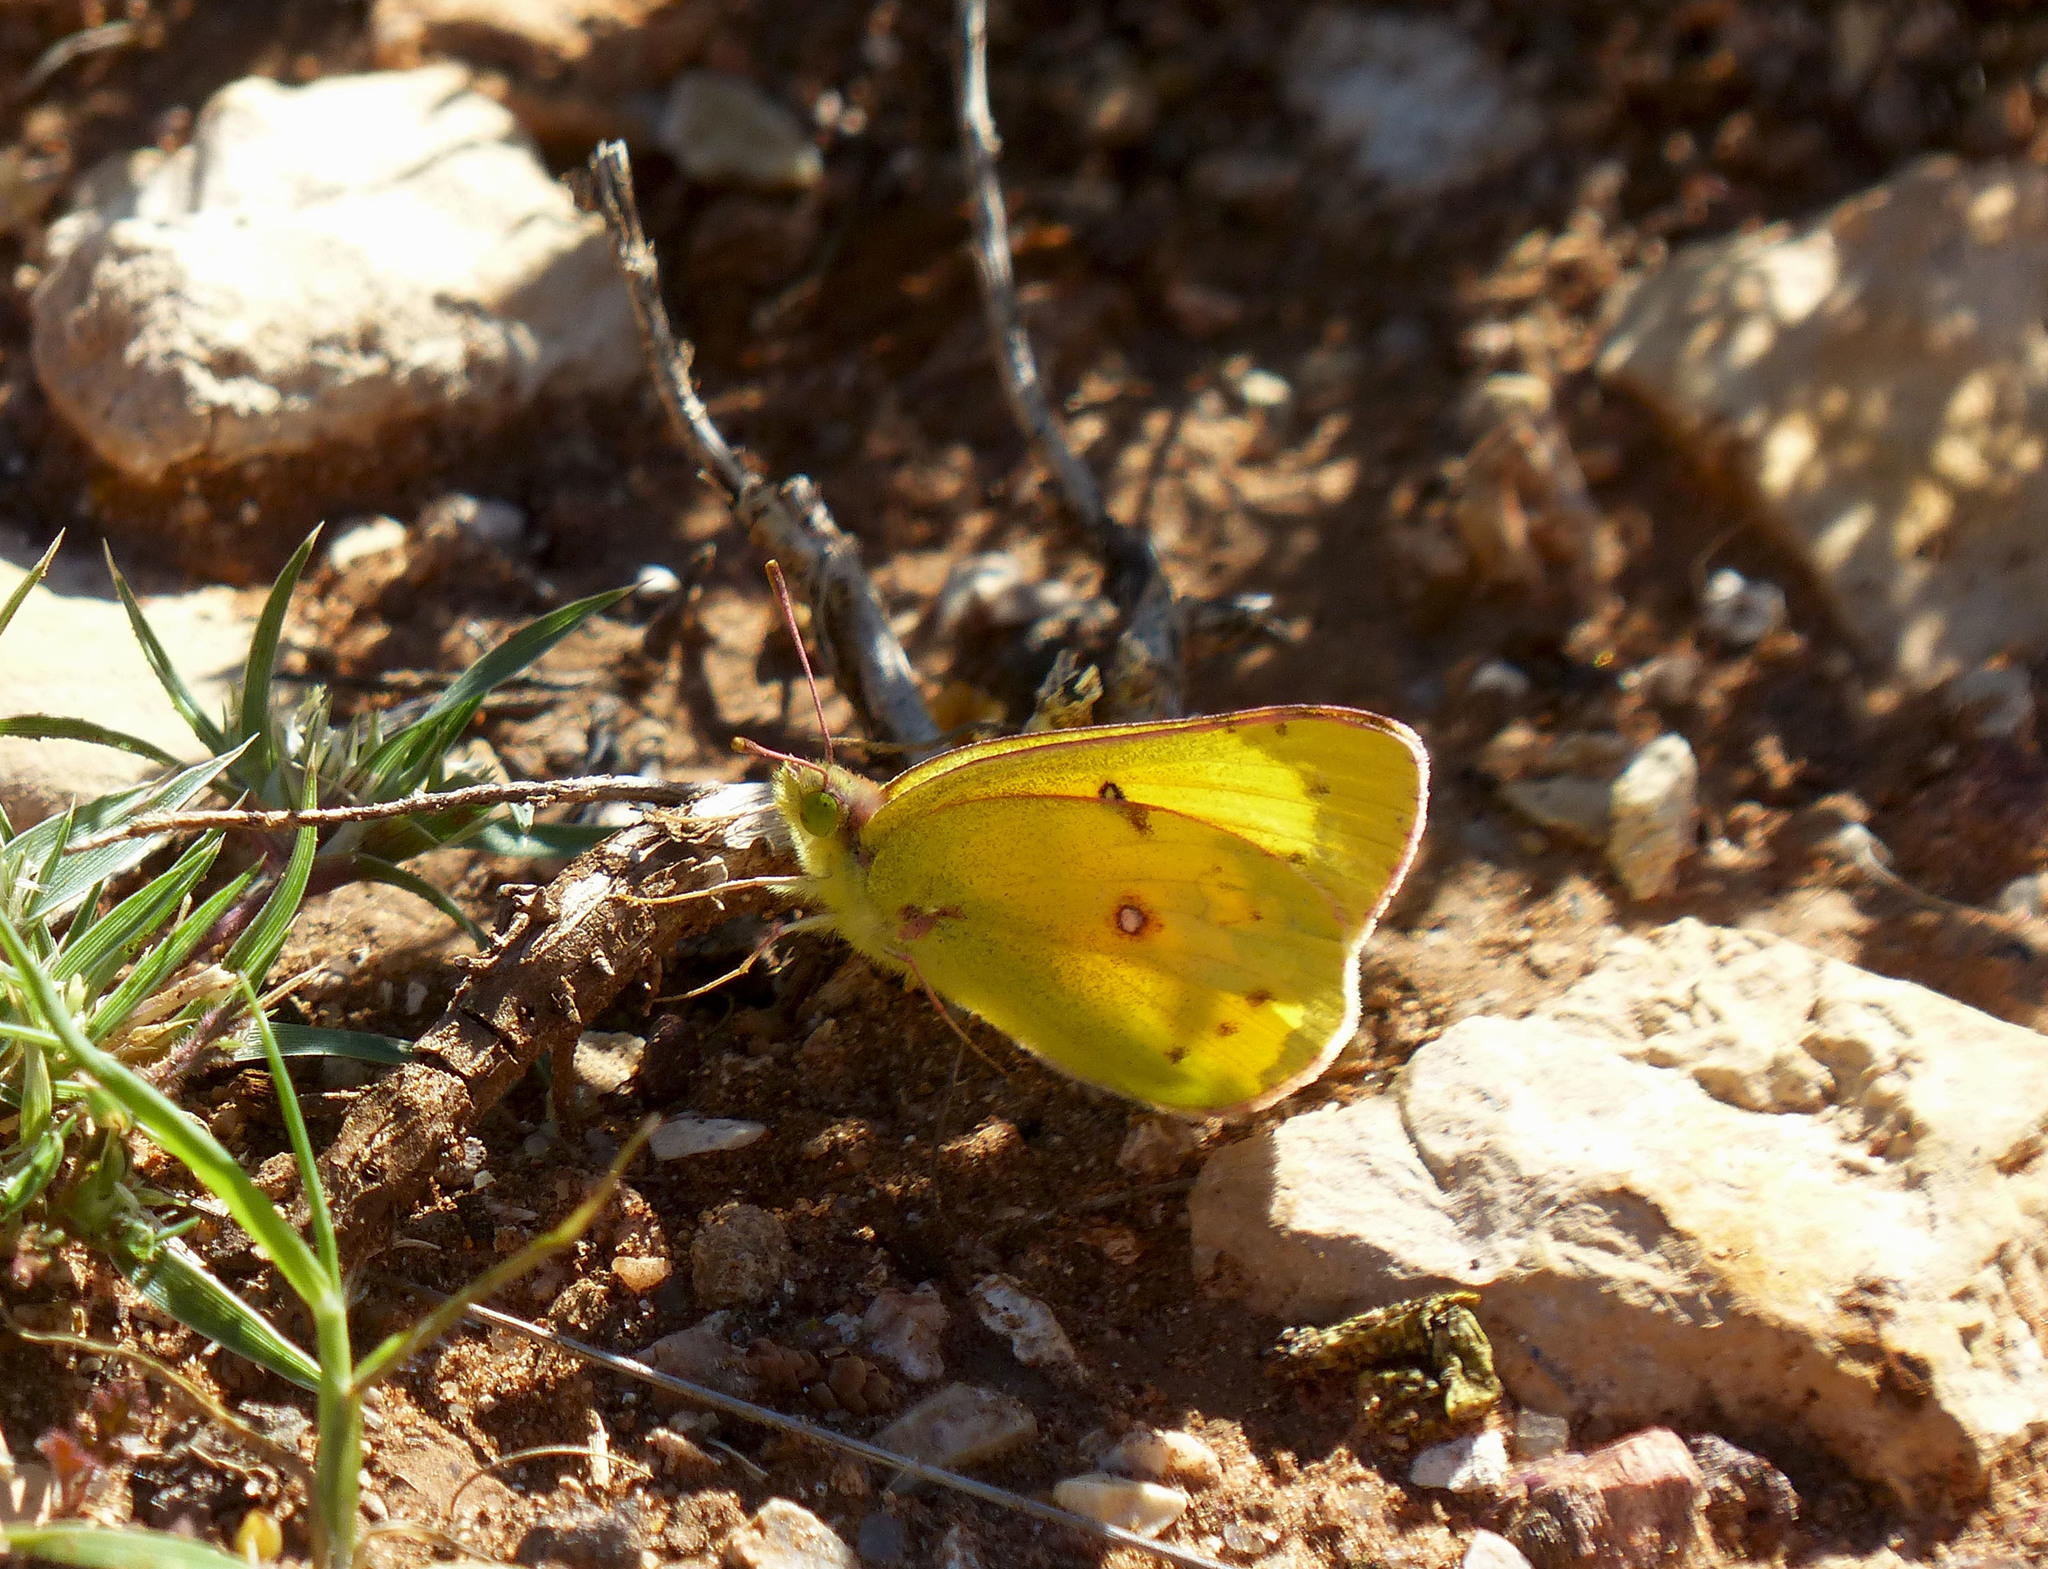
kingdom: Animalia
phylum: Arthropoda
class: Insecta
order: Lepidoptera
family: Pieridae
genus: Colias
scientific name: Colias eurytheme
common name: Alfalfa butterfly
